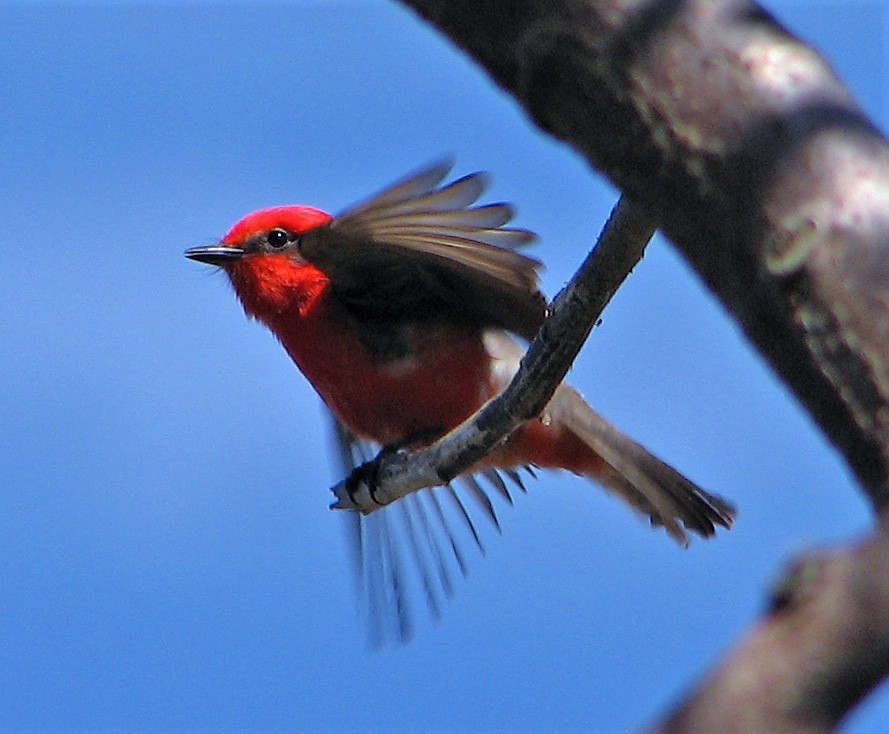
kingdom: Animalia
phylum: Chordata
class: Aves
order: Passeriformes
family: Tyrannidae
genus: Pyrocephalus
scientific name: Pyrocephalus rubinus
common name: Vermilion flycatcher
